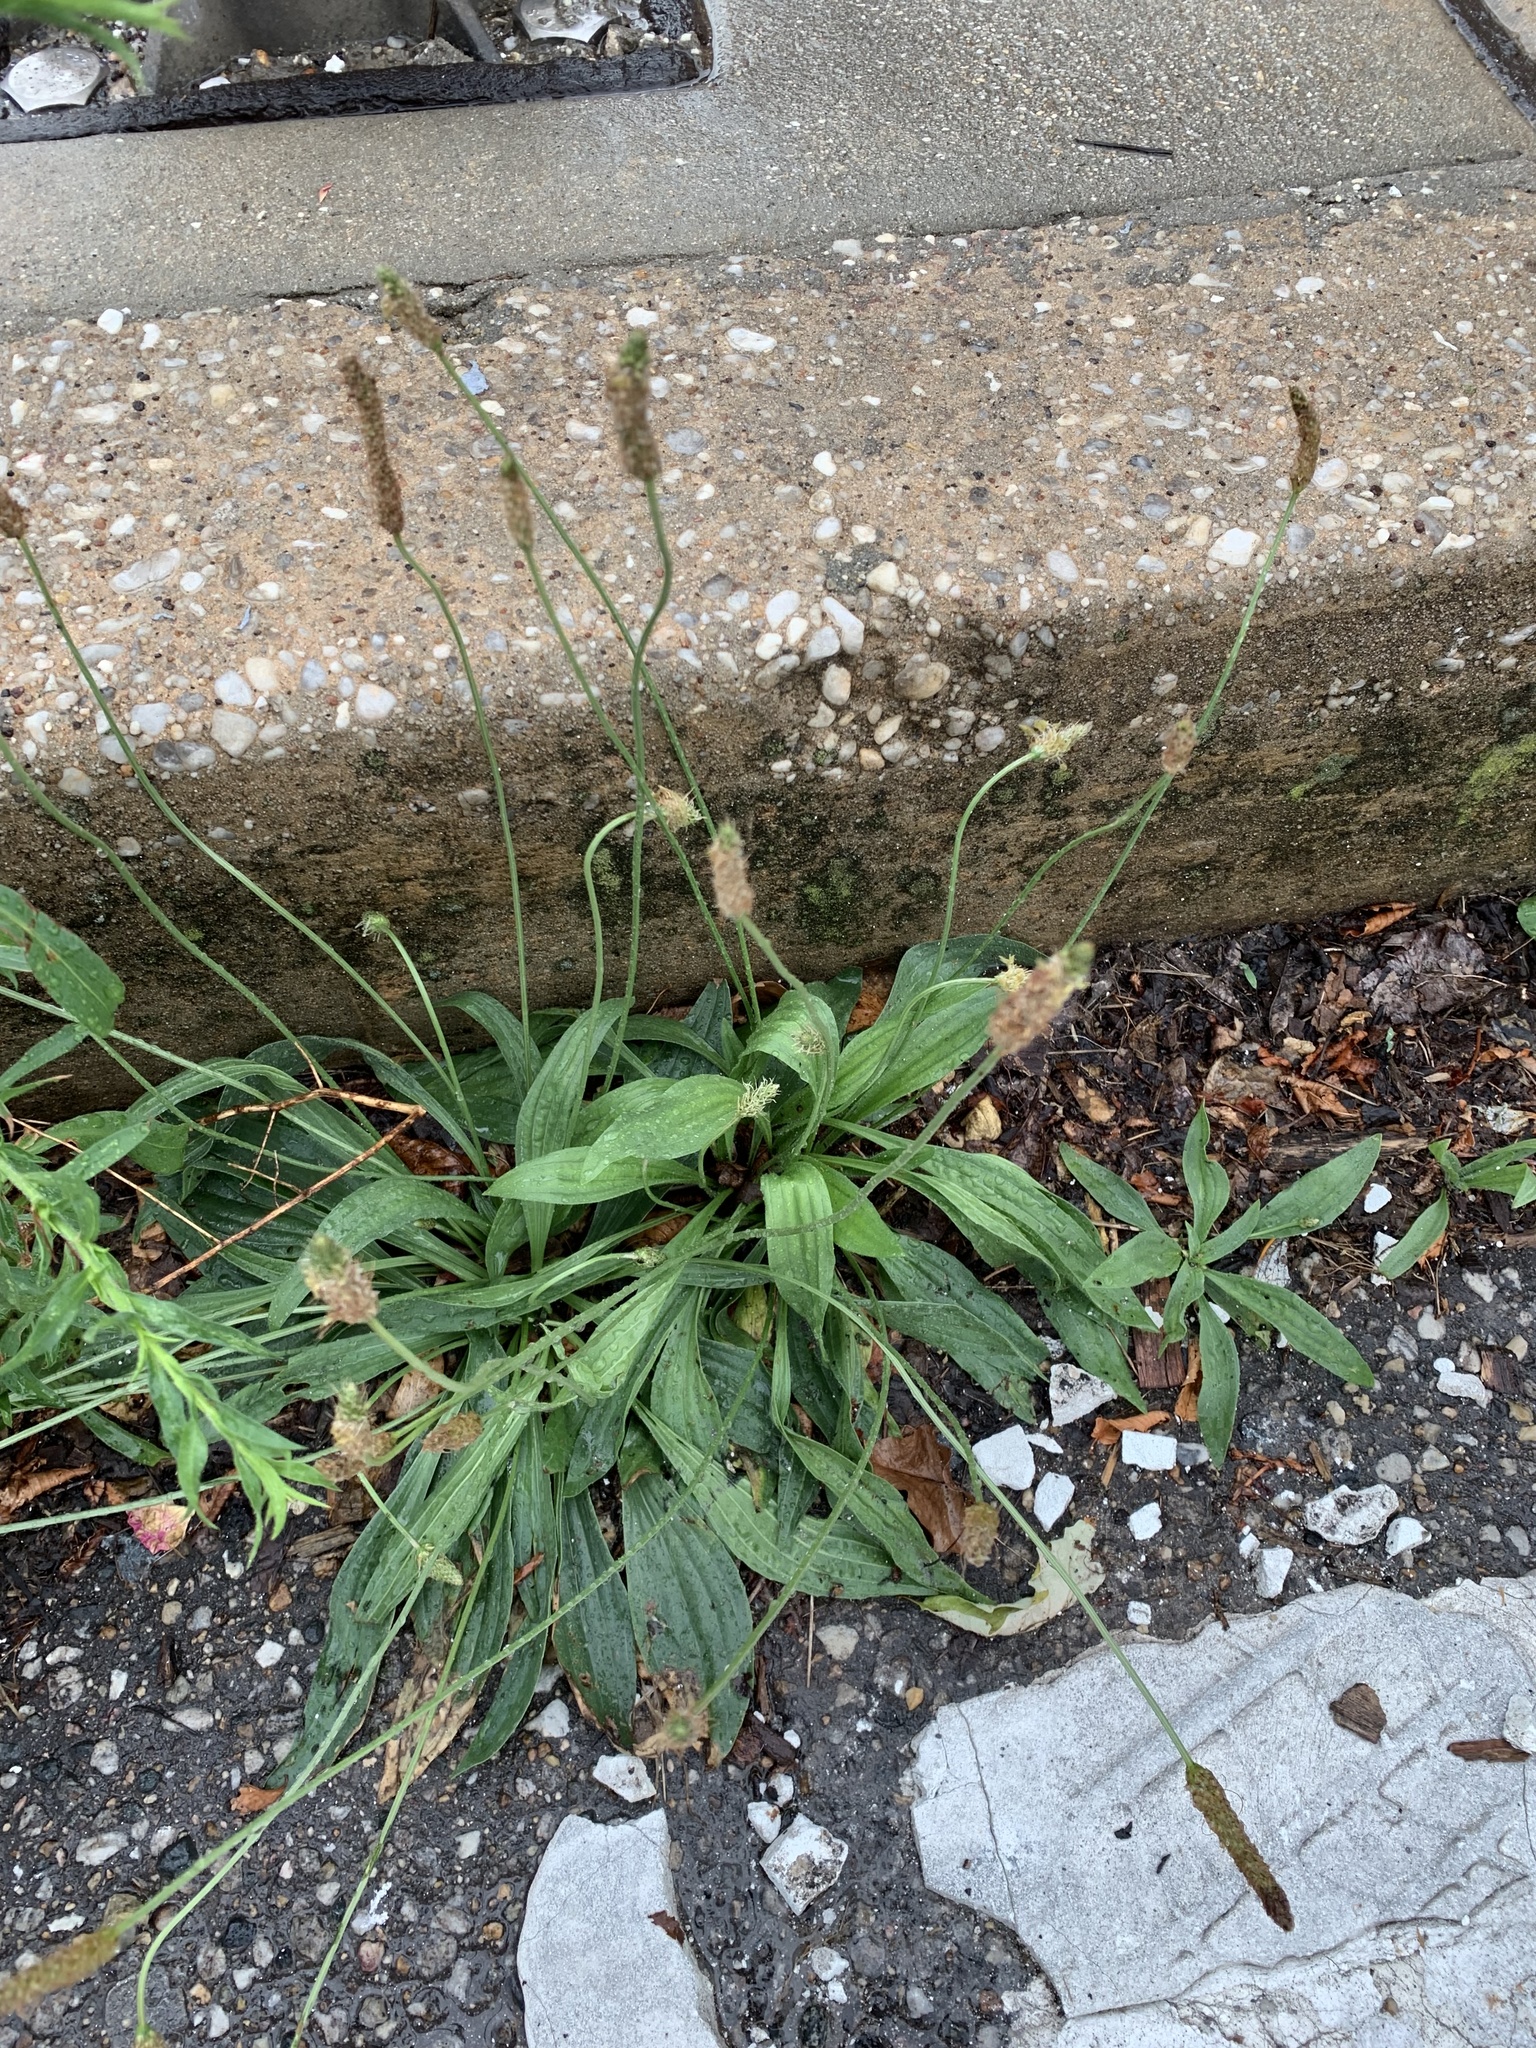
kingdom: Plantae
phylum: Tracheophyta
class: Magnoliopsida
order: Lamiales
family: Plantaginaceae
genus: Plantago
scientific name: Plantago lanceolata
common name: Ribwort plantain
